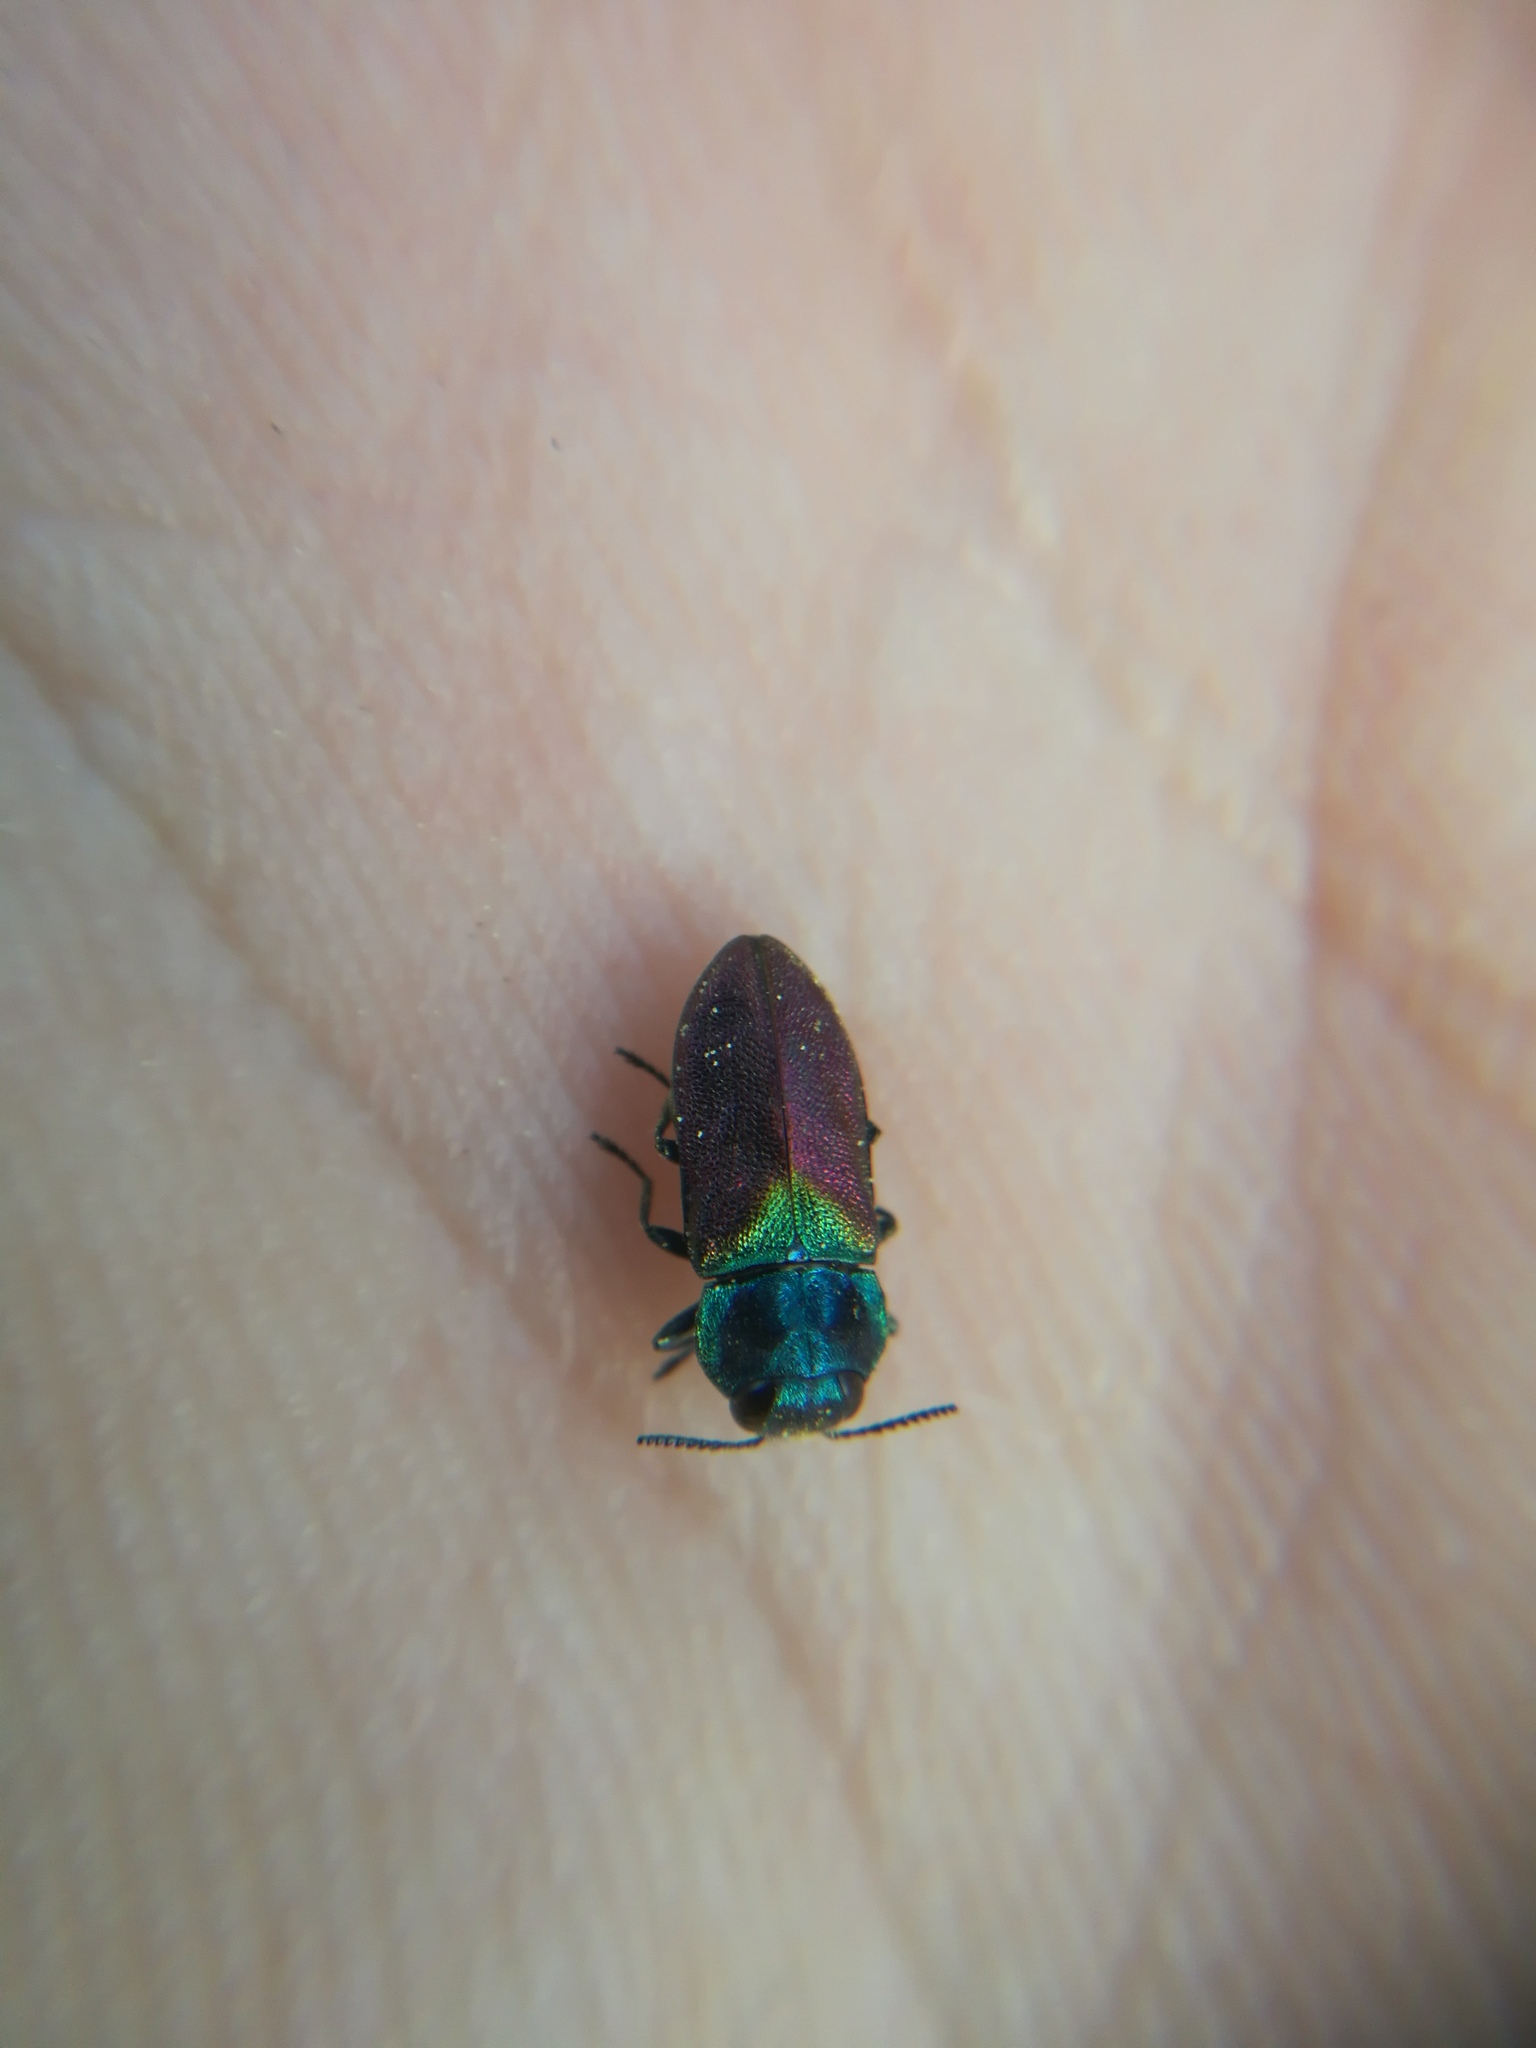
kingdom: Animalia
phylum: Arthropoda
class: Insecta
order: Coleoptera
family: Buprestidae
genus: Anthaxia
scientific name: Anthaxia semicuprea
